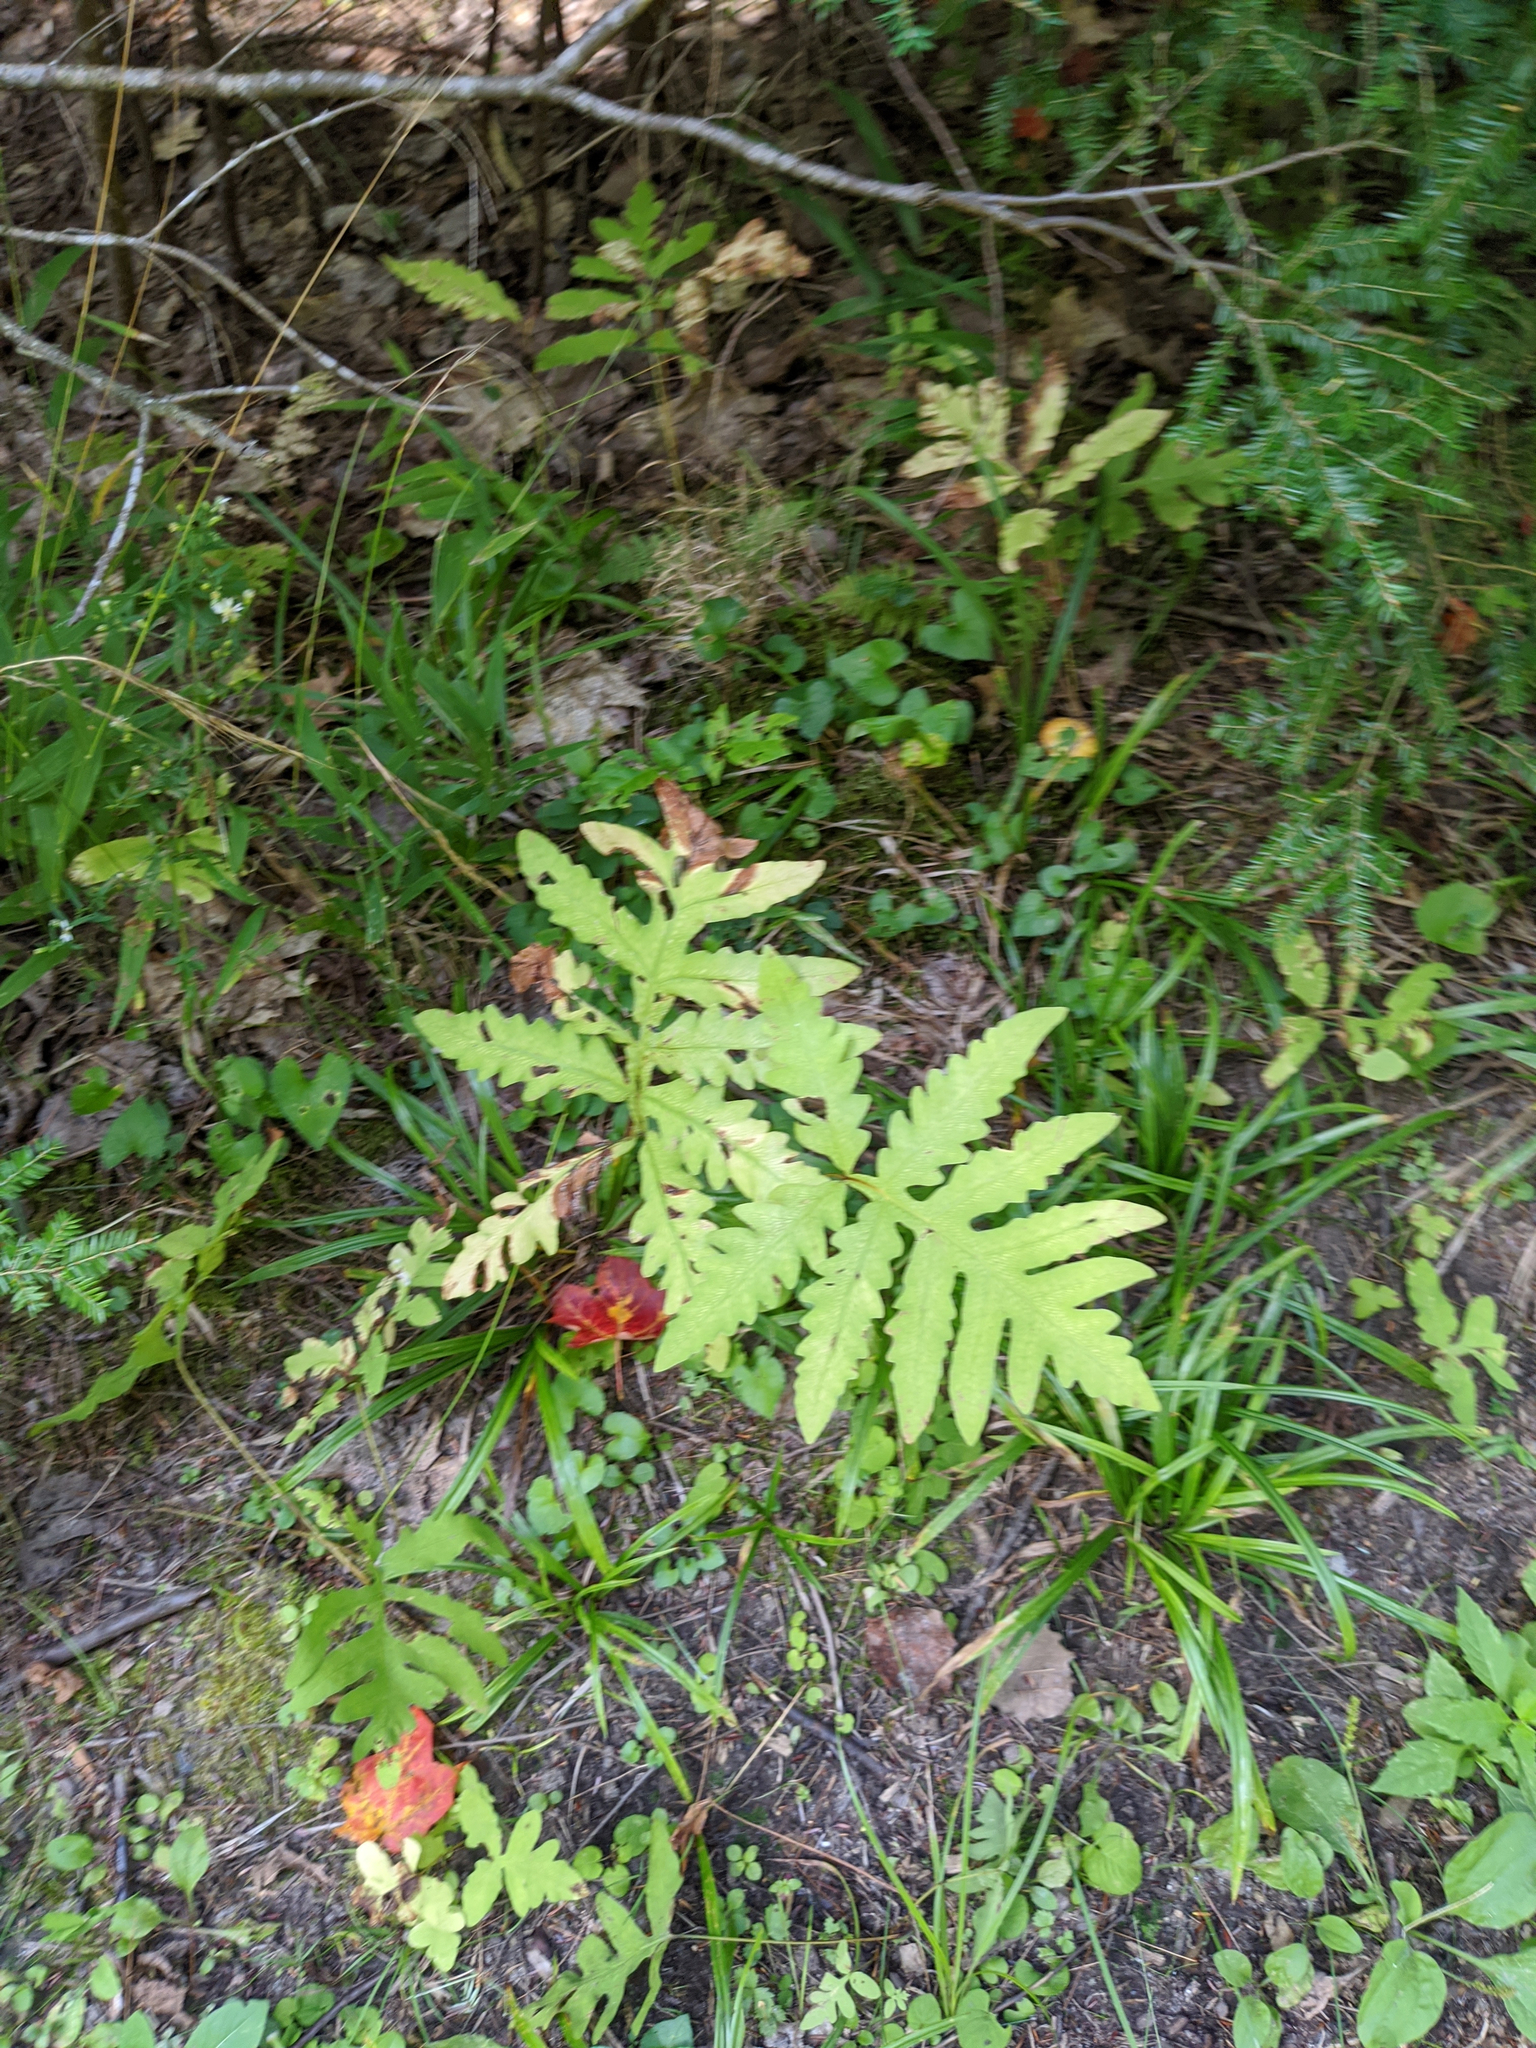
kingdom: Plantae
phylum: Tracheophyta
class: Polypodiopsida
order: Polypodiales
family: Onocleaceae
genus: Onoclea
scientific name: Onoclea sensibilis
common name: Sensitive fern
